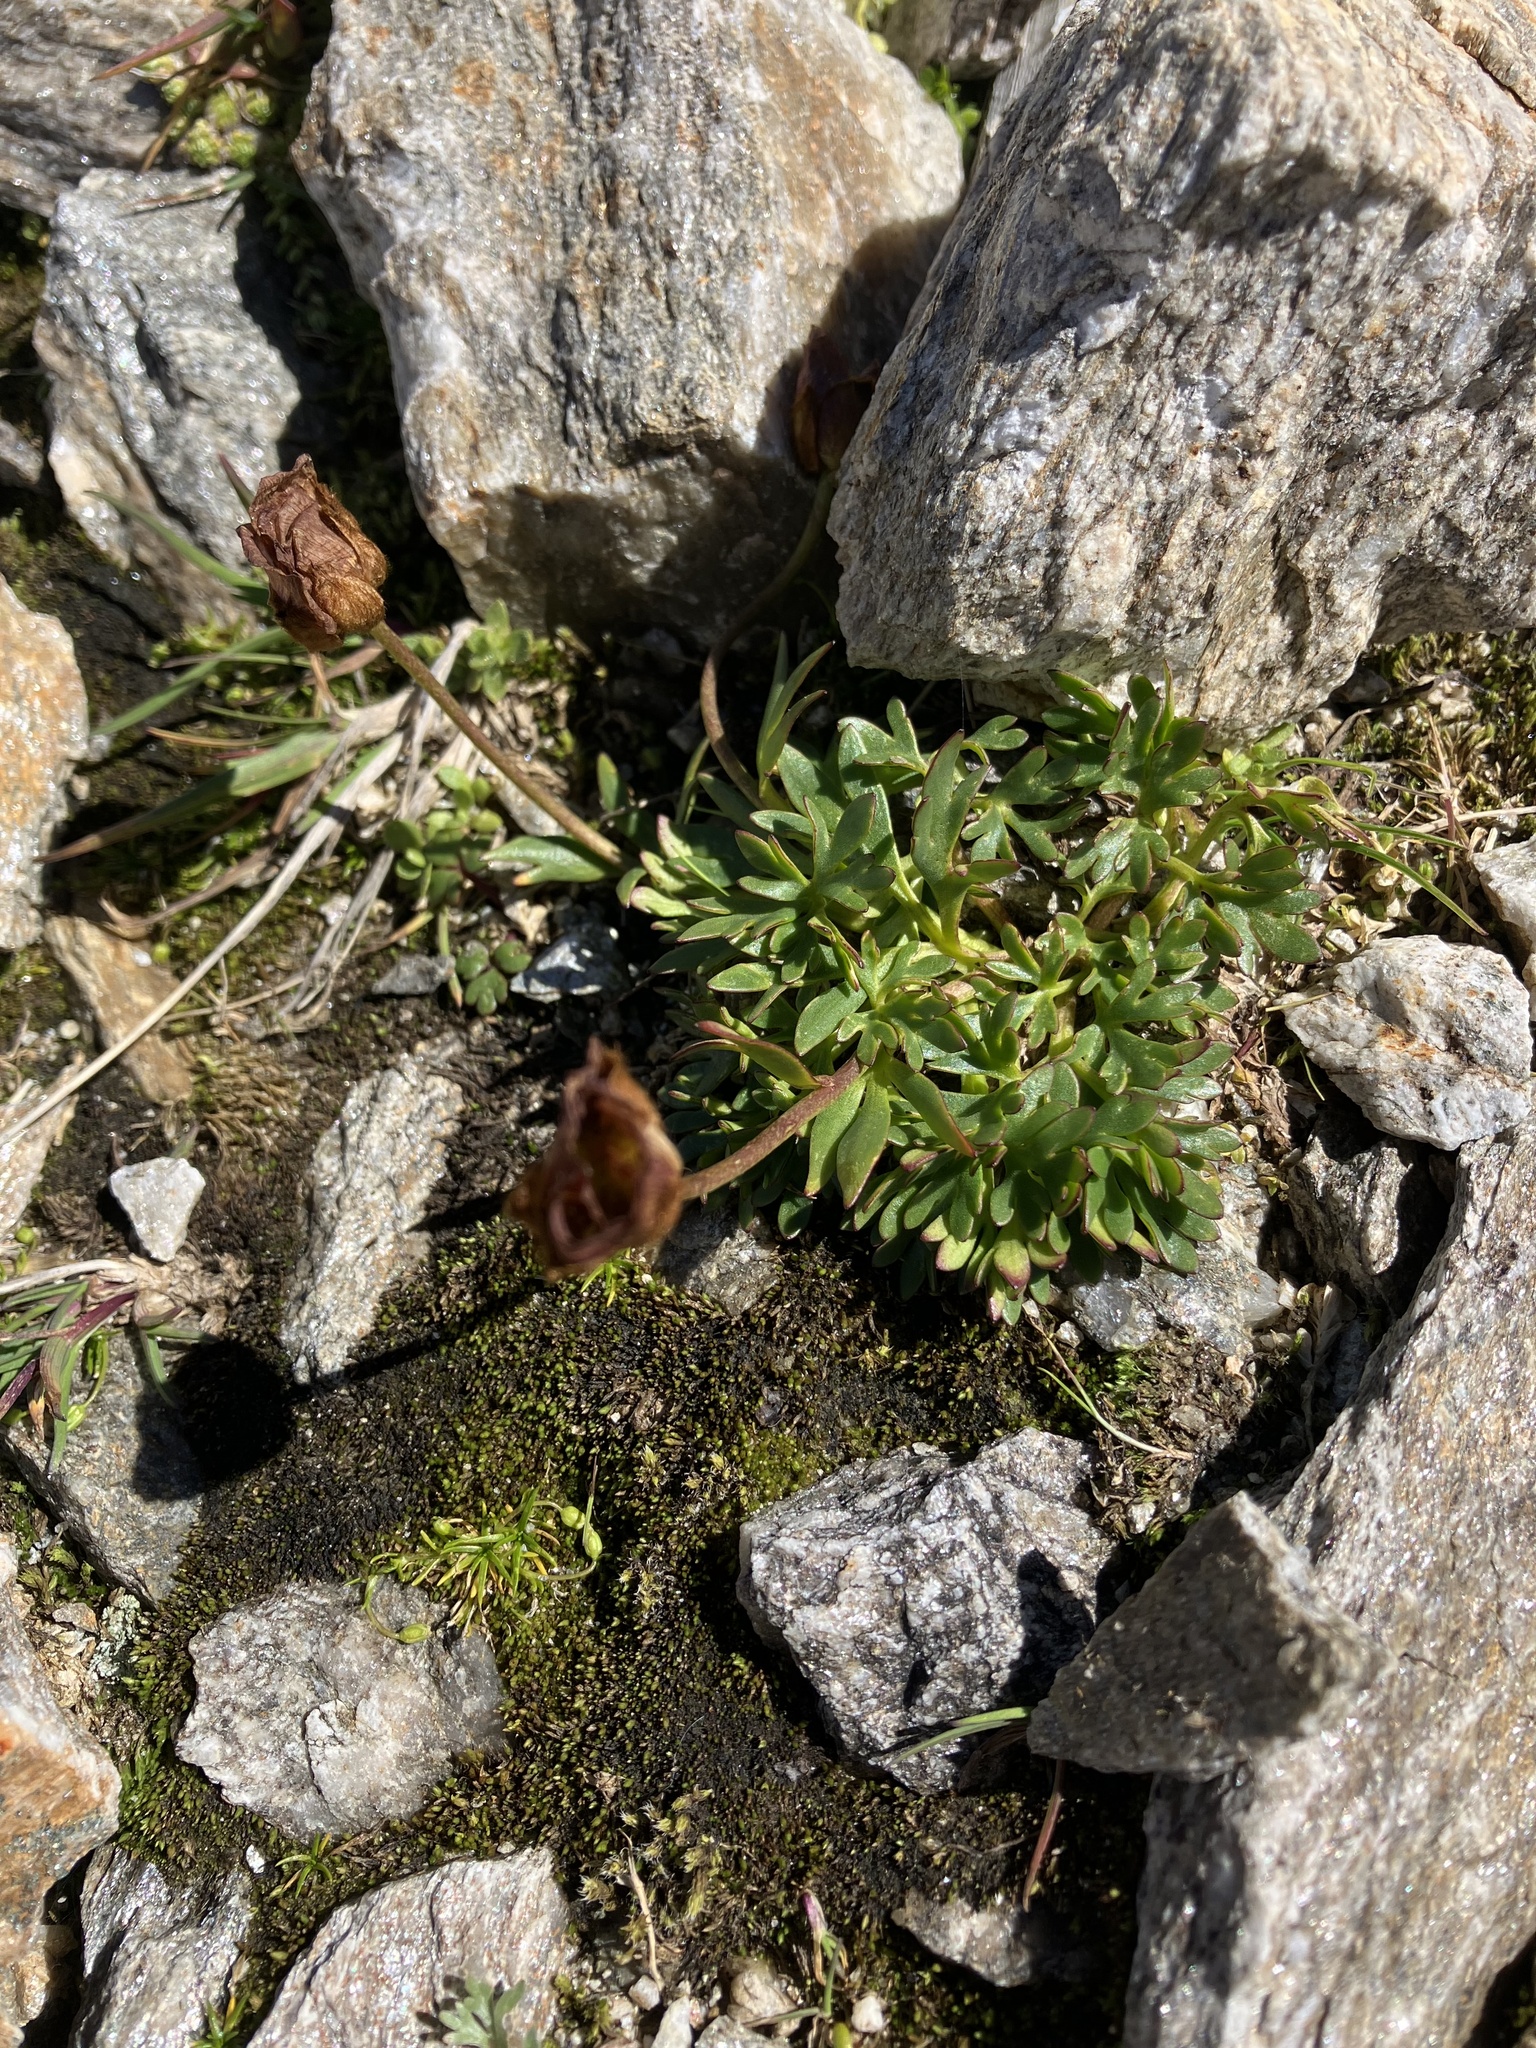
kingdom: Plantae
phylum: Tracheophyta
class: Magnoliopsida
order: Ranunculales
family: Ranunculaceae
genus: Ranunculus
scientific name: Ranunculus glacialis
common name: Glacier buttercup
